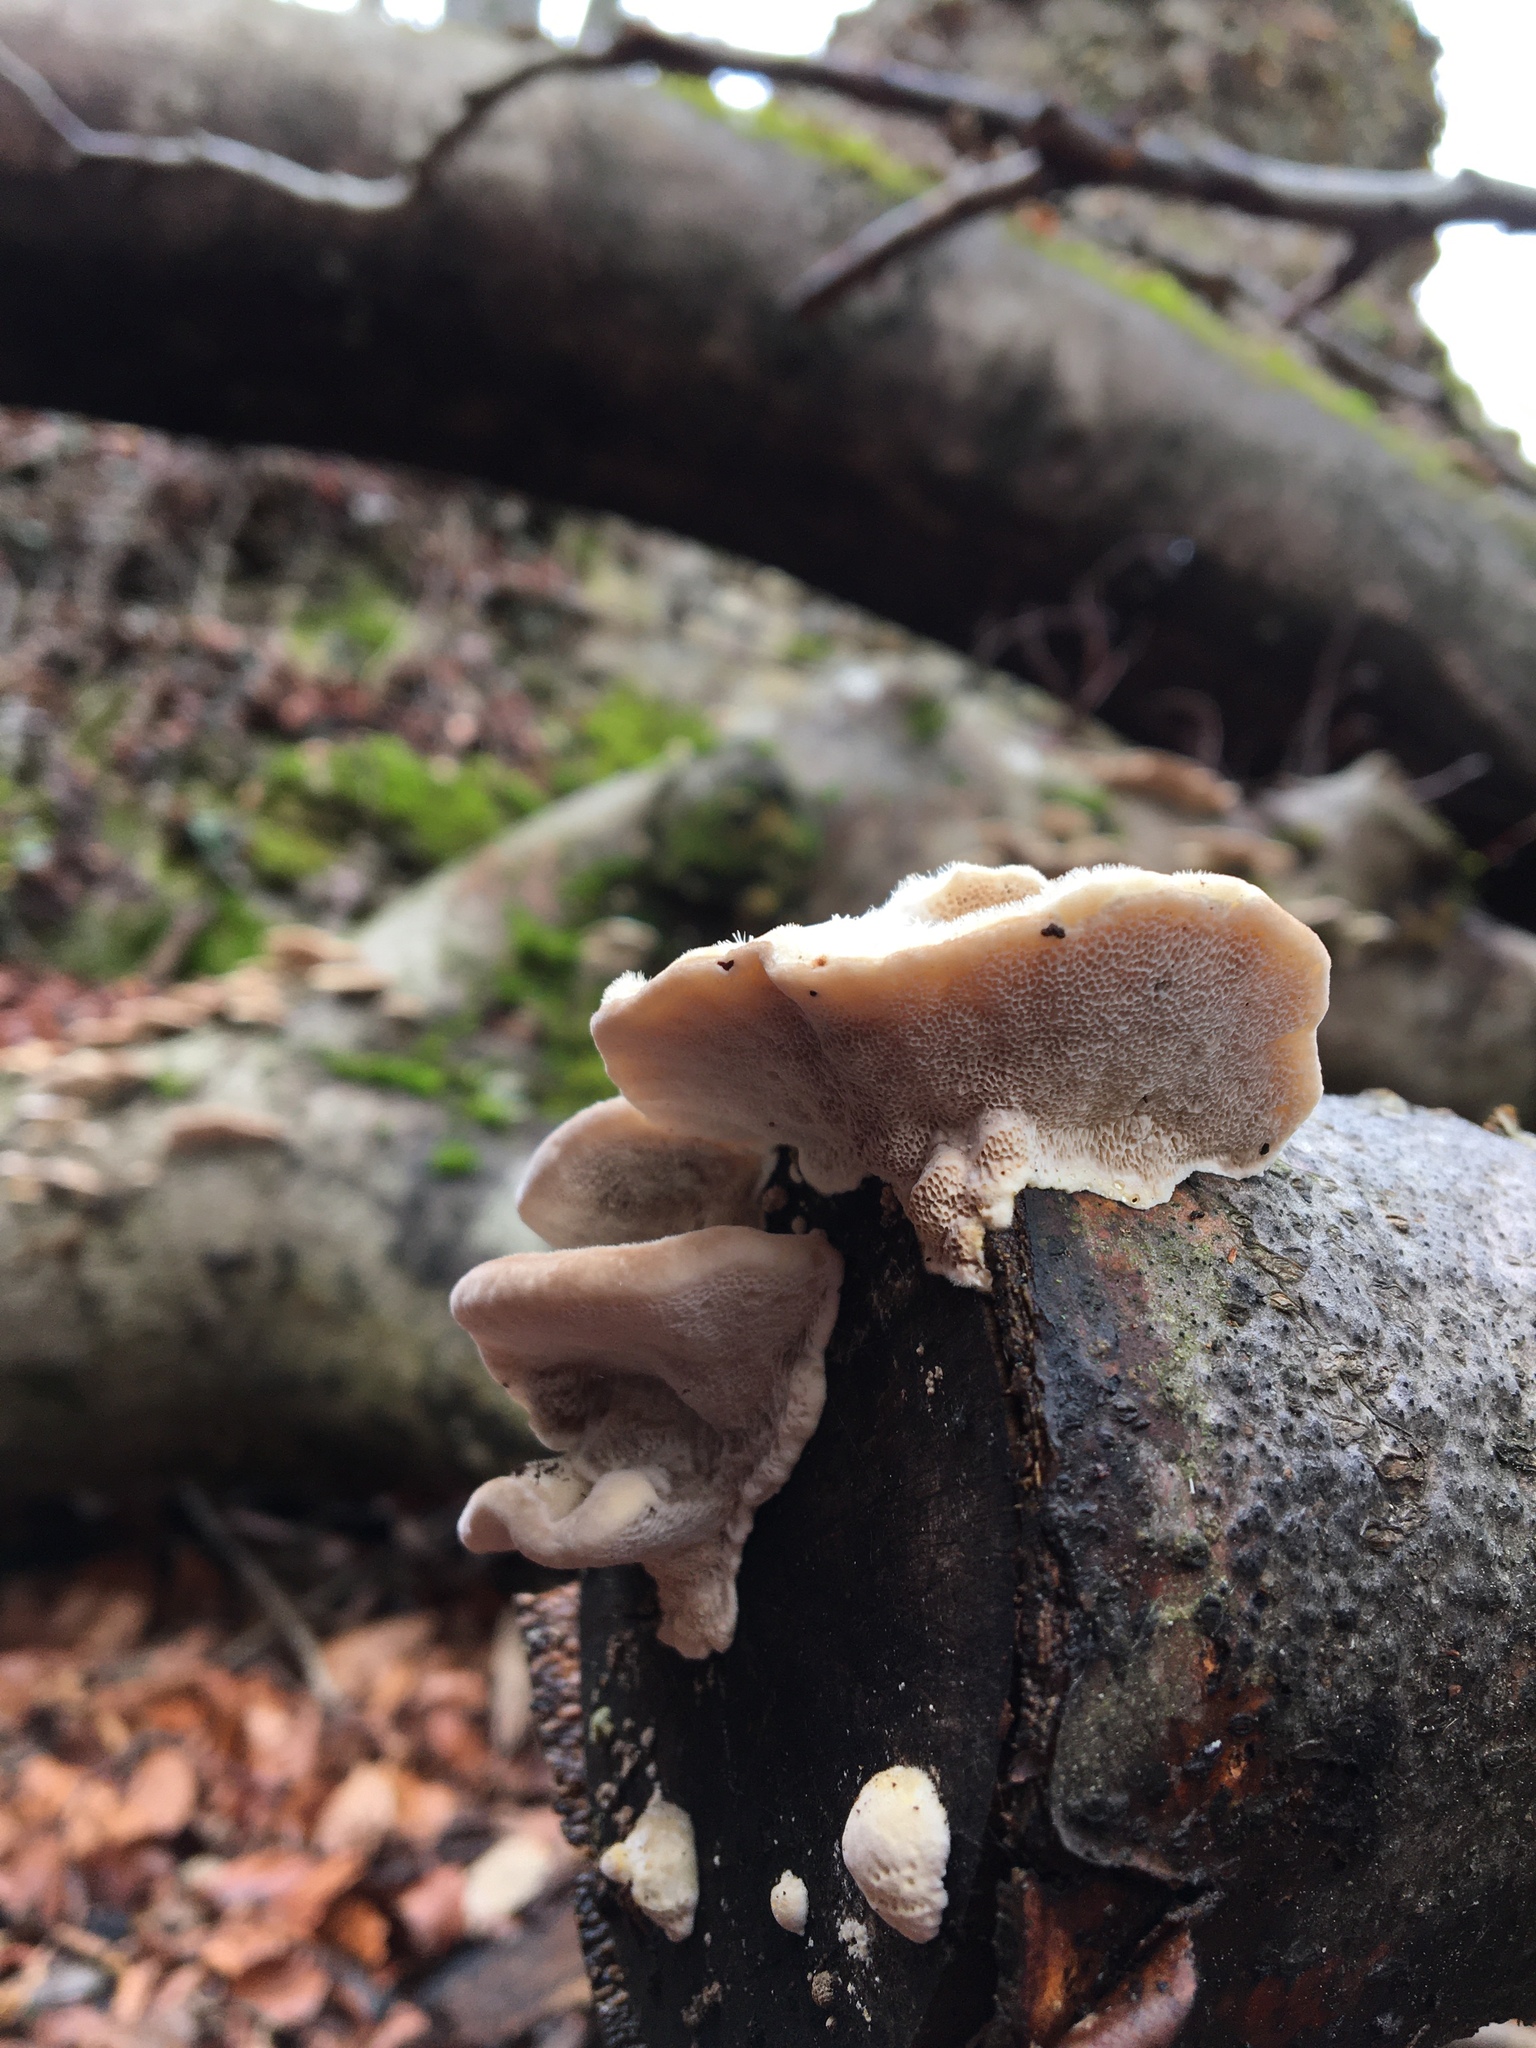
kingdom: Fungi
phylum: Basidiomycota
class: Agaricomycetes
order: Polyporales
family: Polyporaceae
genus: Trametes
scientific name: Trametes hirsuta
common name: Hairy bracket
